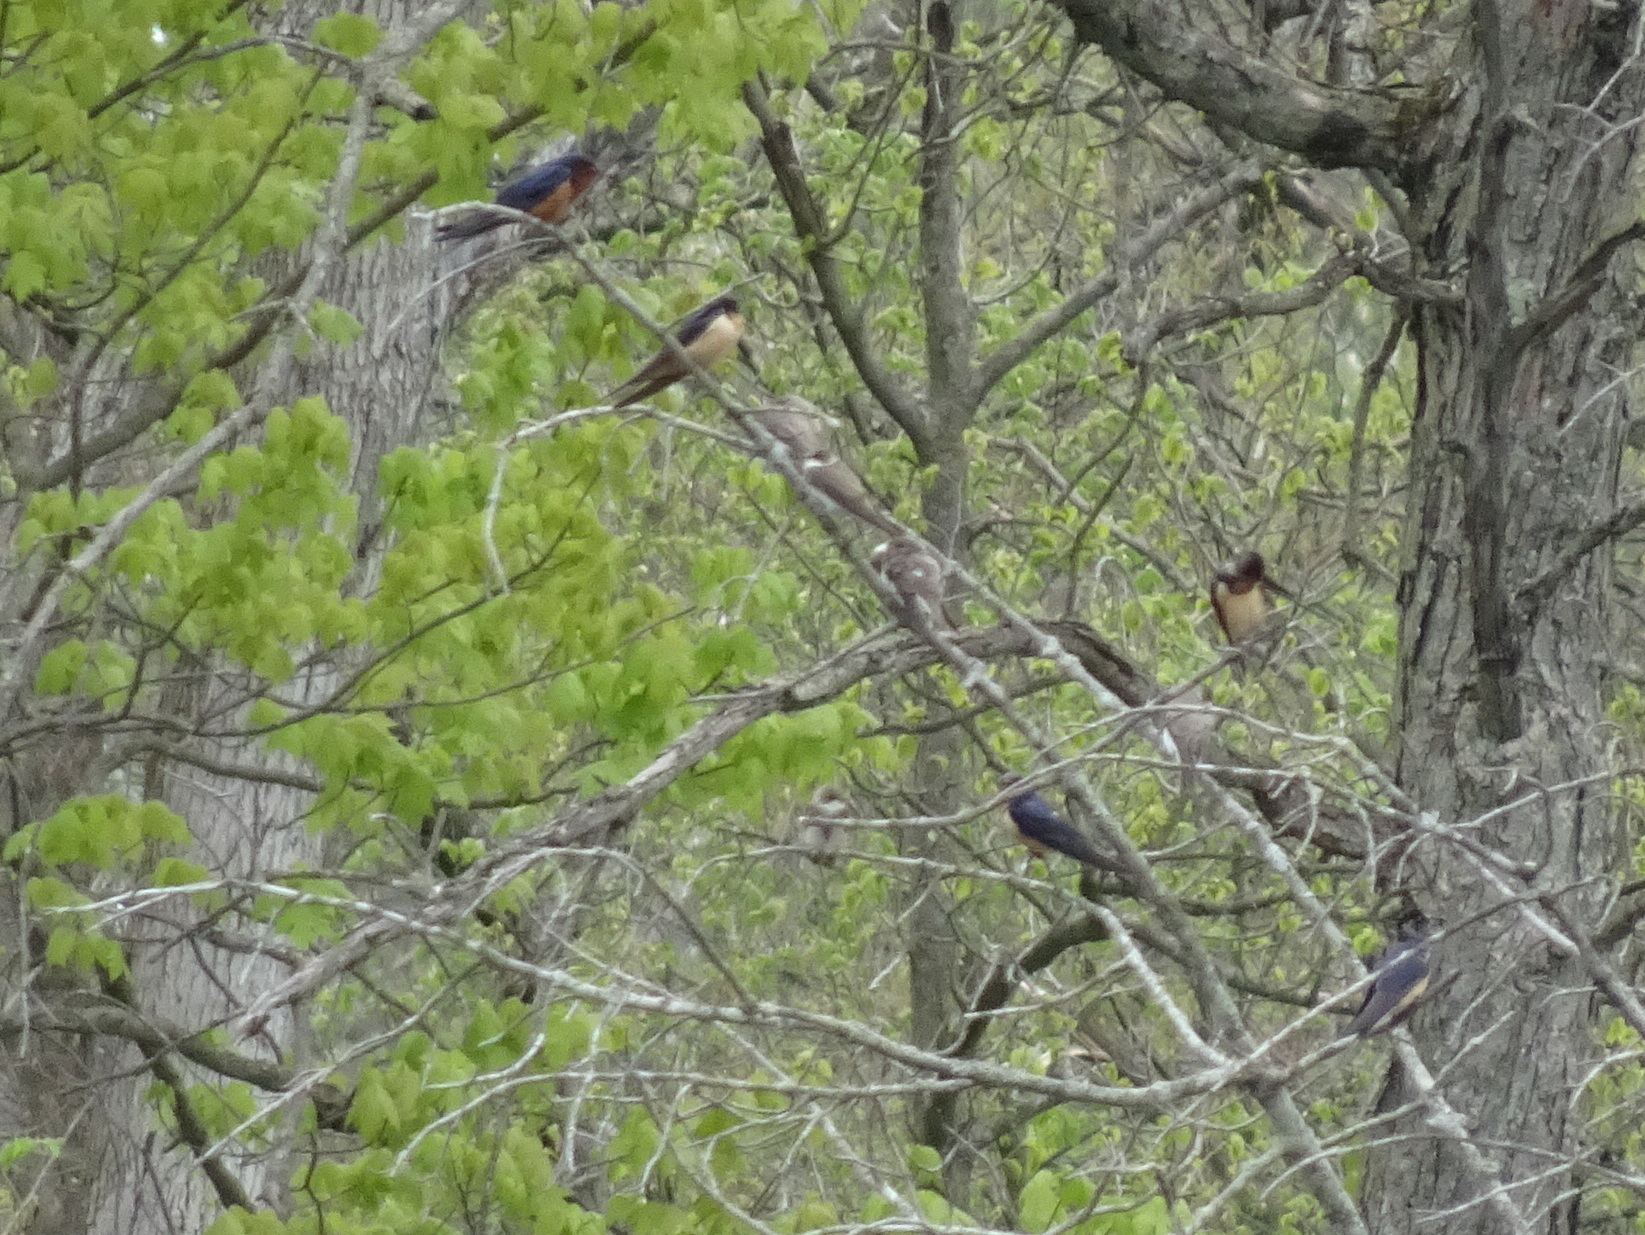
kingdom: Animalia
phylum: Chordata
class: Aves
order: Passeriformes
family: Hirundinidae
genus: Hirundo
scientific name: Hirundo rustica
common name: Barn swallow
